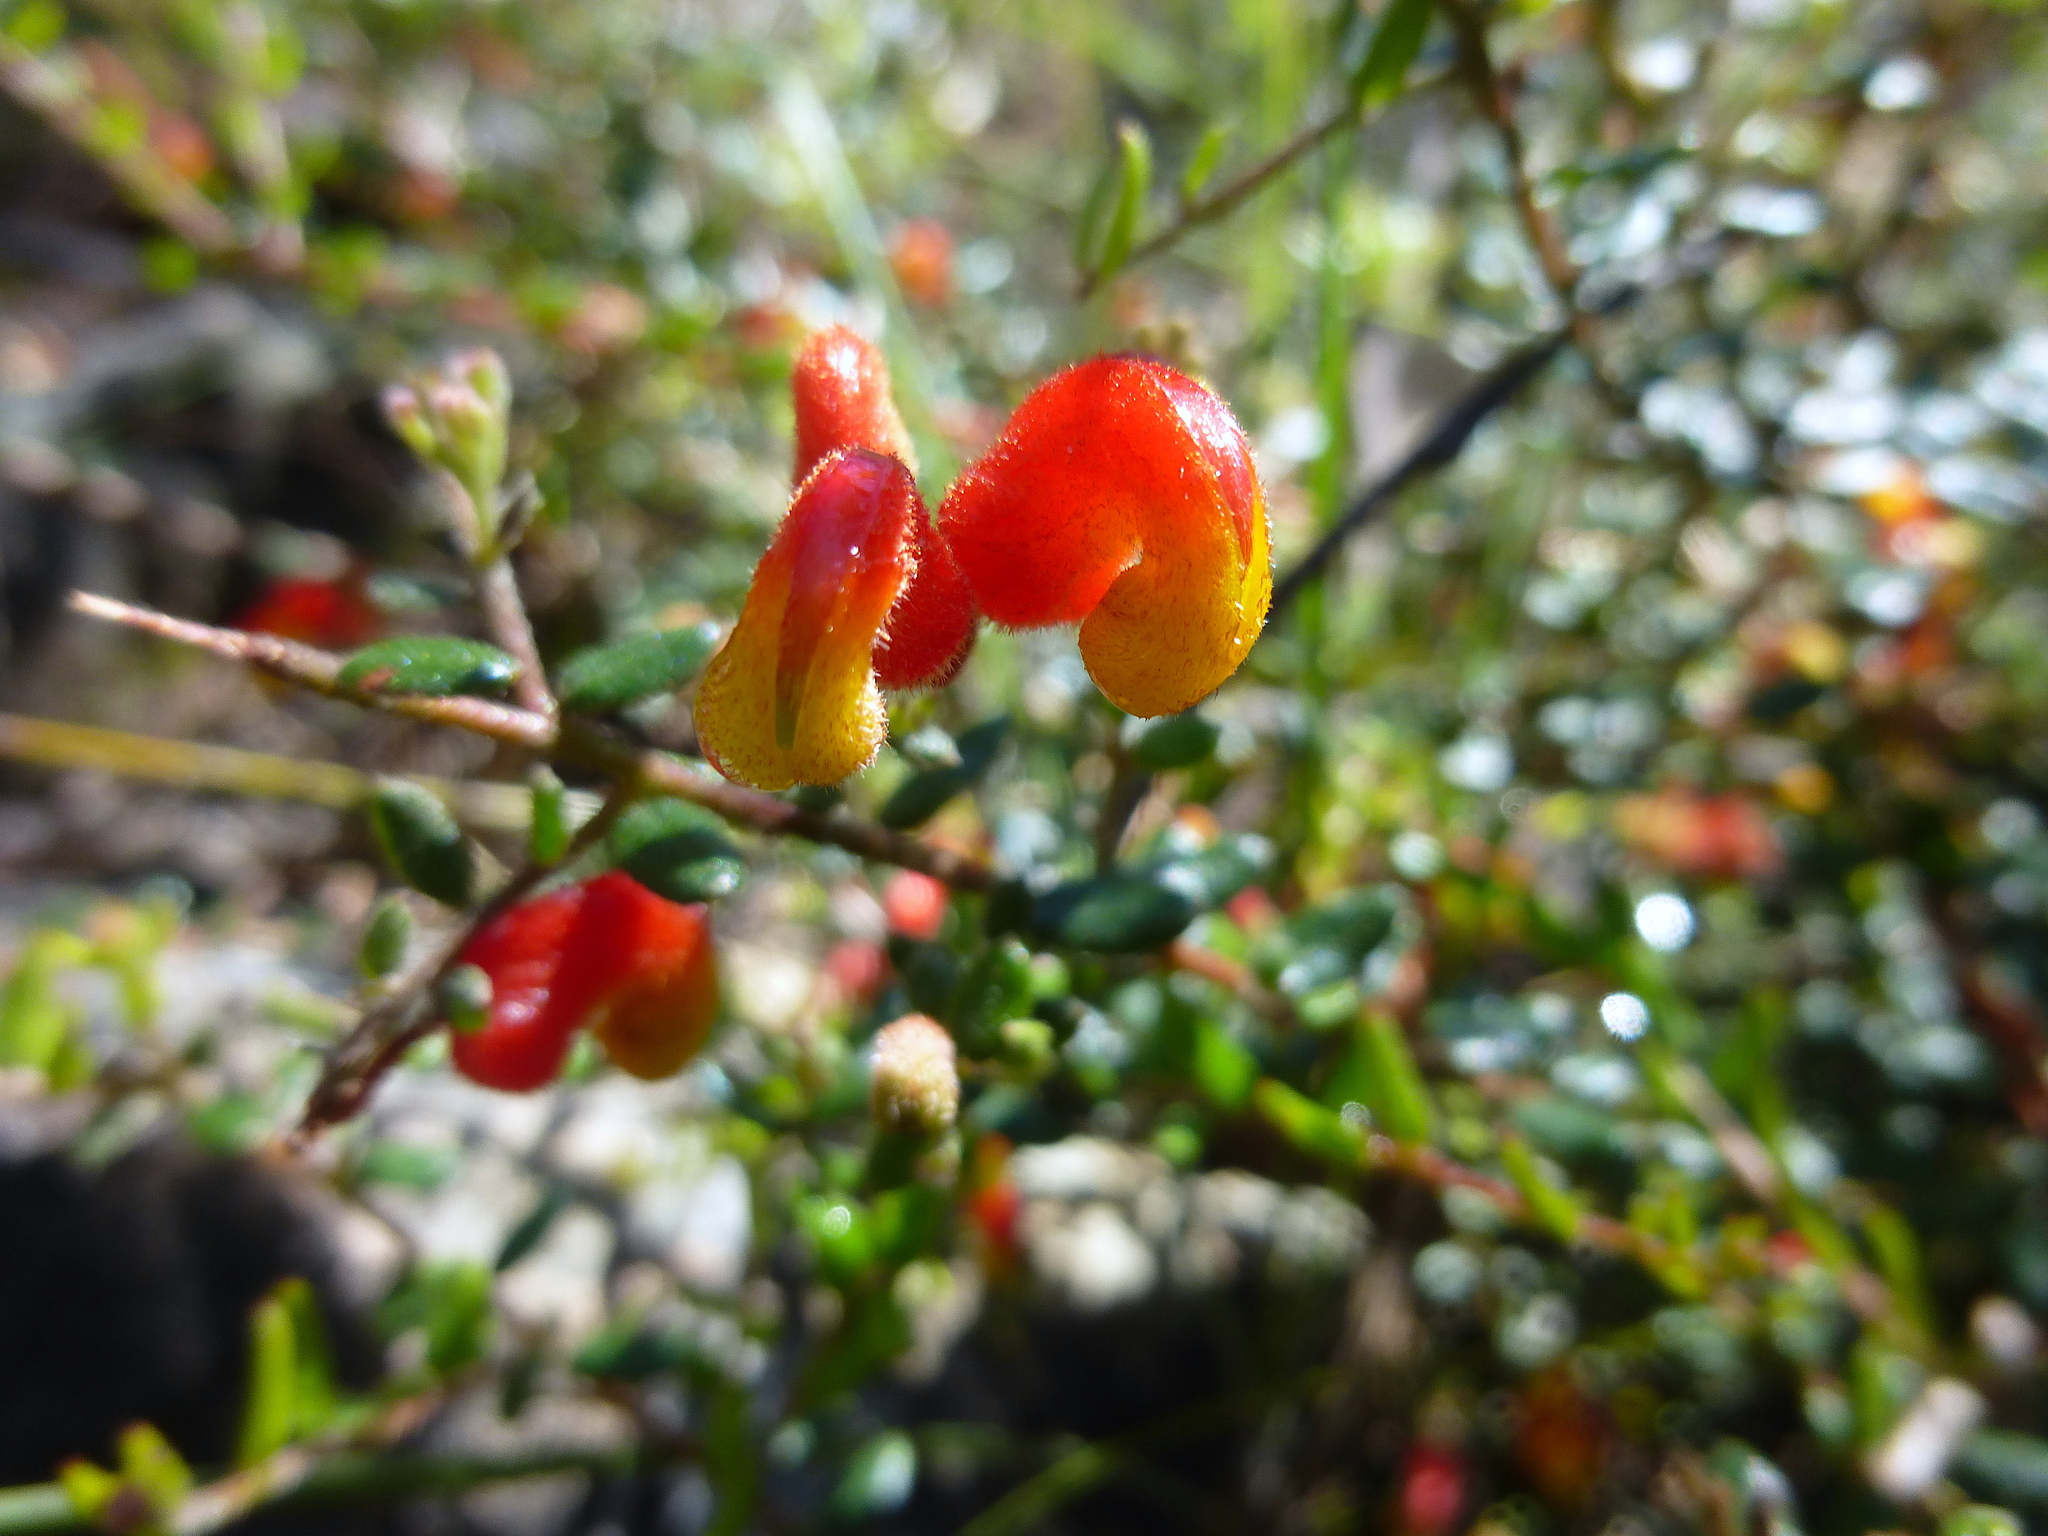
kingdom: Plantae
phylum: Tracheophyta
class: Magnoliopsida
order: Proteales
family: Proteaceae
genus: Grevillea
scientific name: Grevillea alpina
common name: Catclaws grevillea
